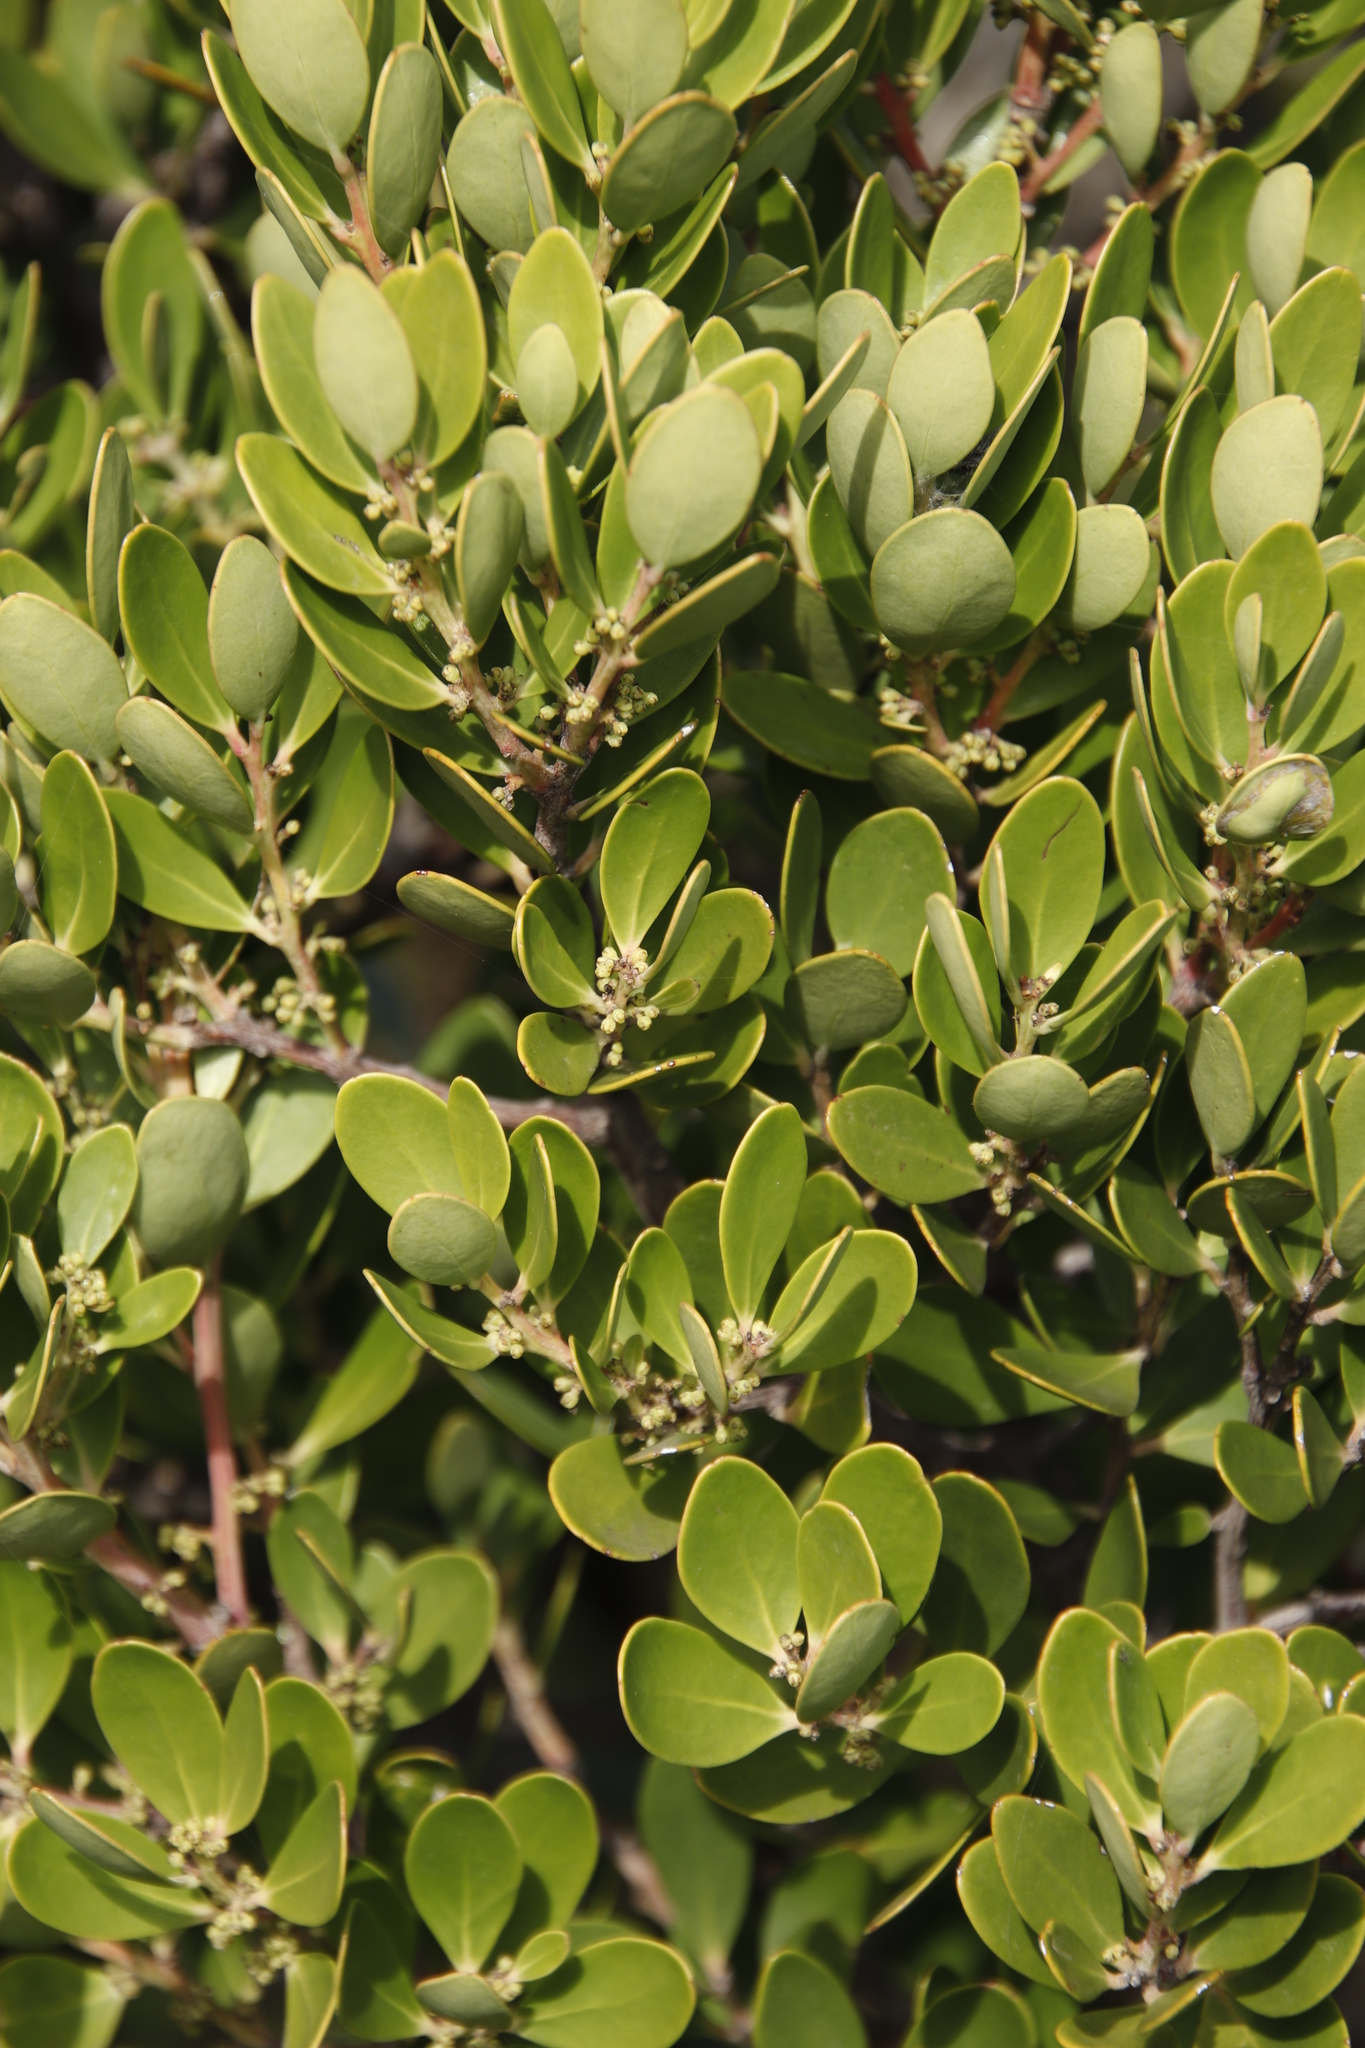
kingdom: Plantae
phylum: Tracheophyta
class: Magnoliopsida
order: Celastrales
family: Celastraceae
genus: Gymnosporia
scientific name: Gymnosporia laurina
